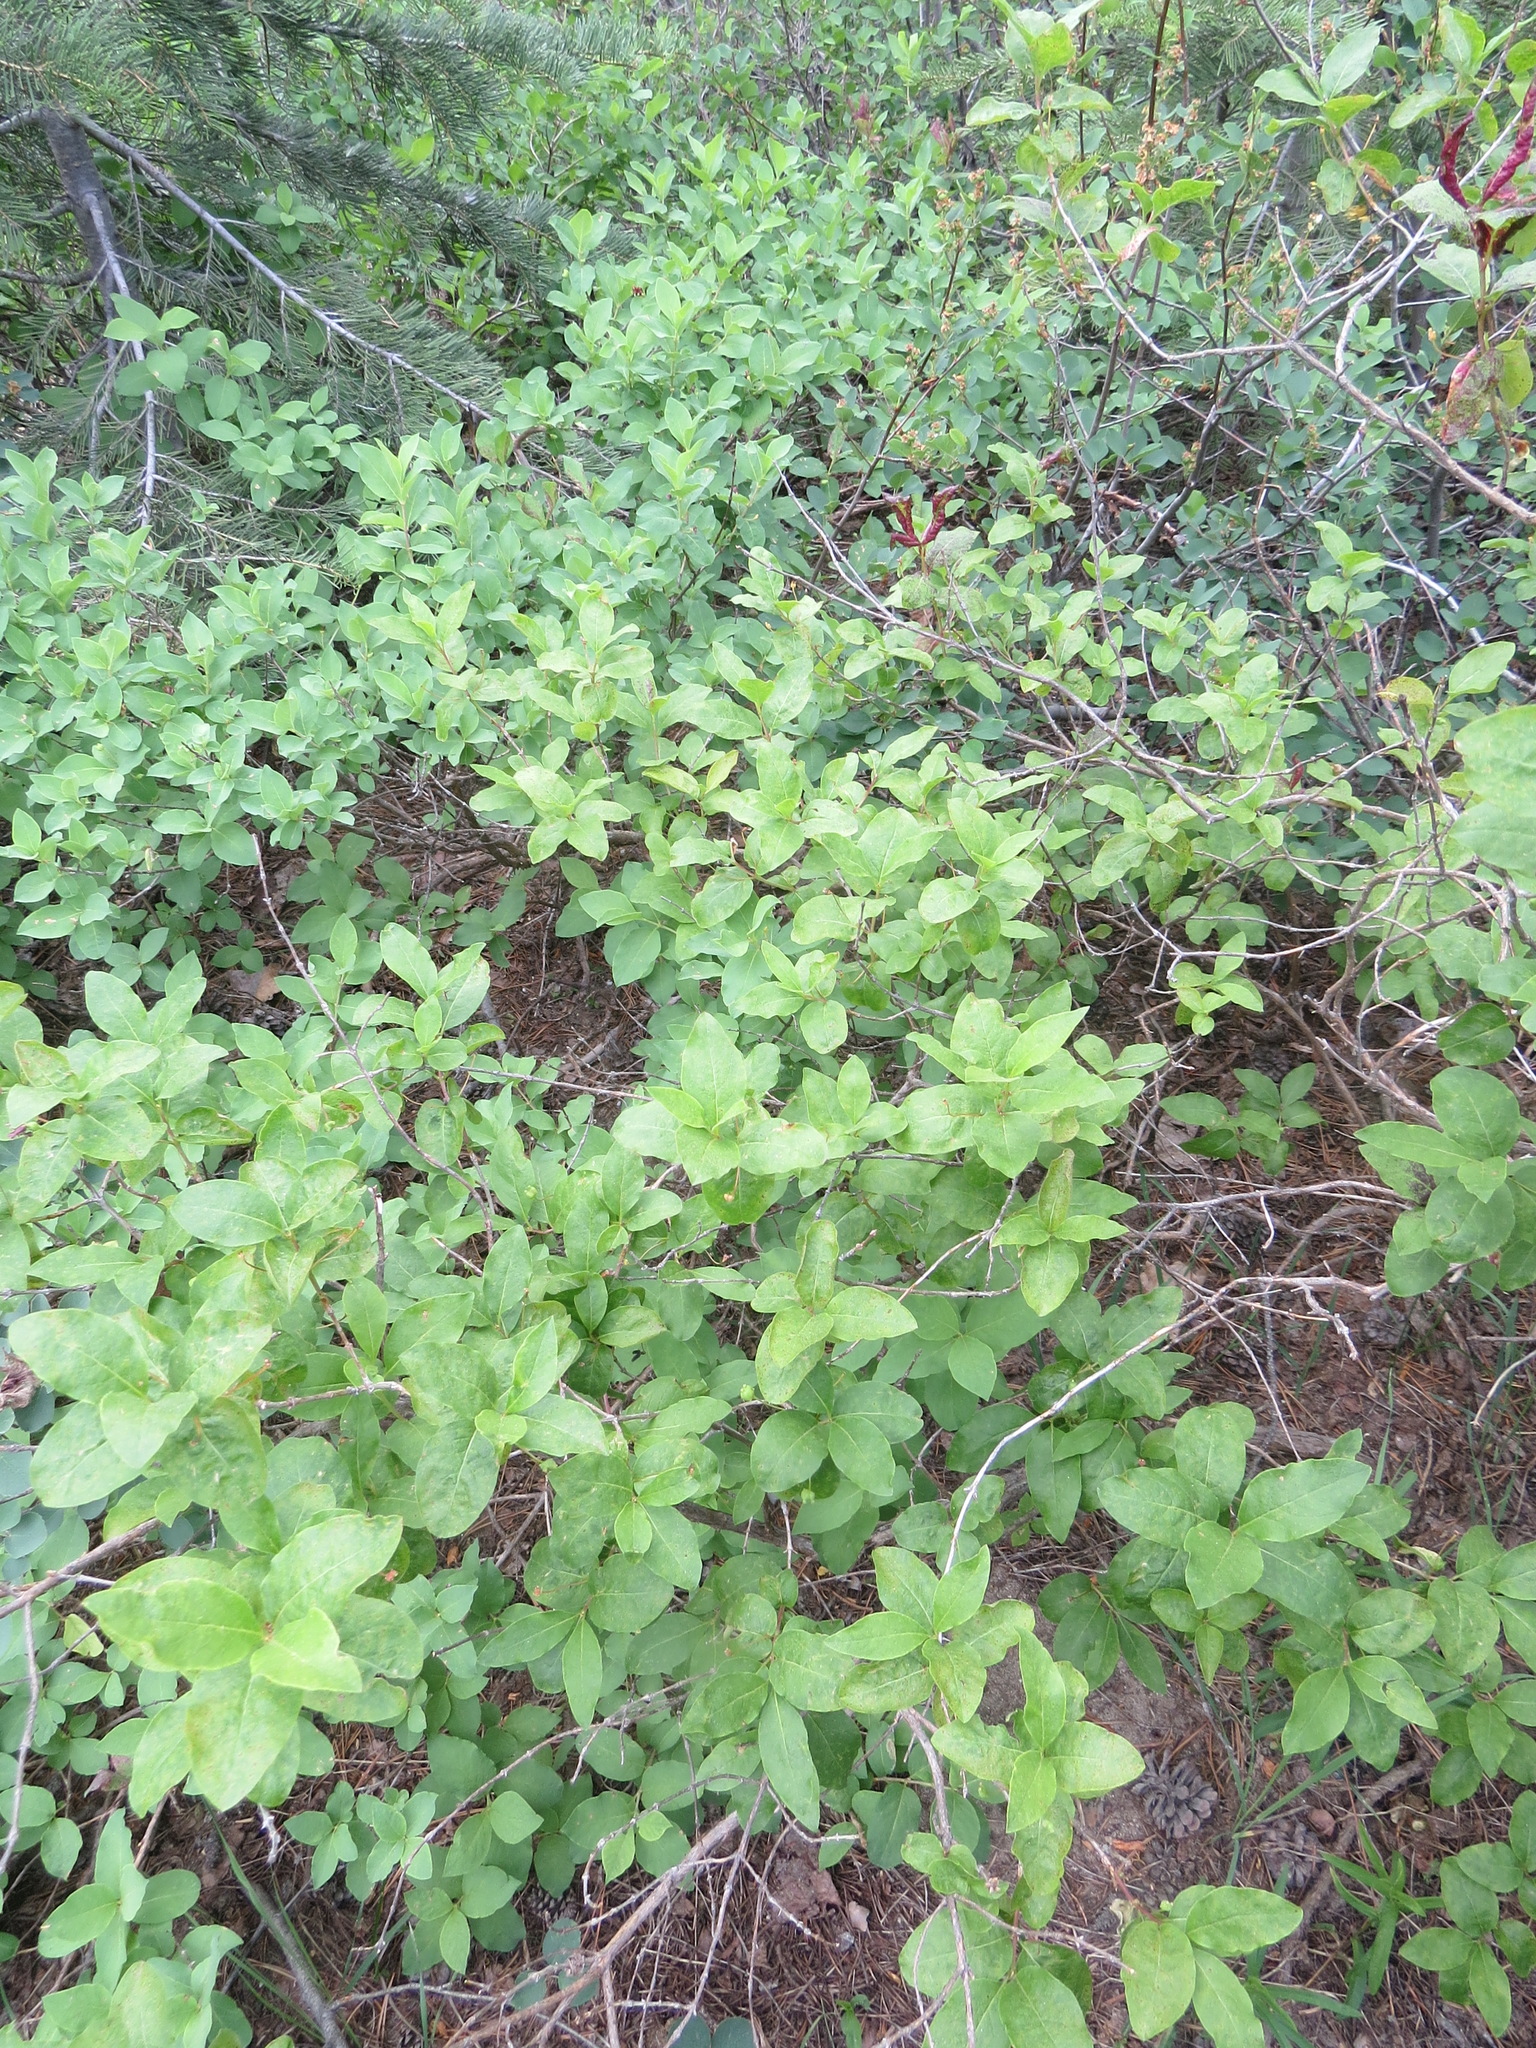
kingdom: Plantae
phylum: Tracheophyta
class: Magnoliopsida
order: Dipsacales
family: Caprifoliaceae
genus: Lonicera
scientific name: Lonicera conjugialis
